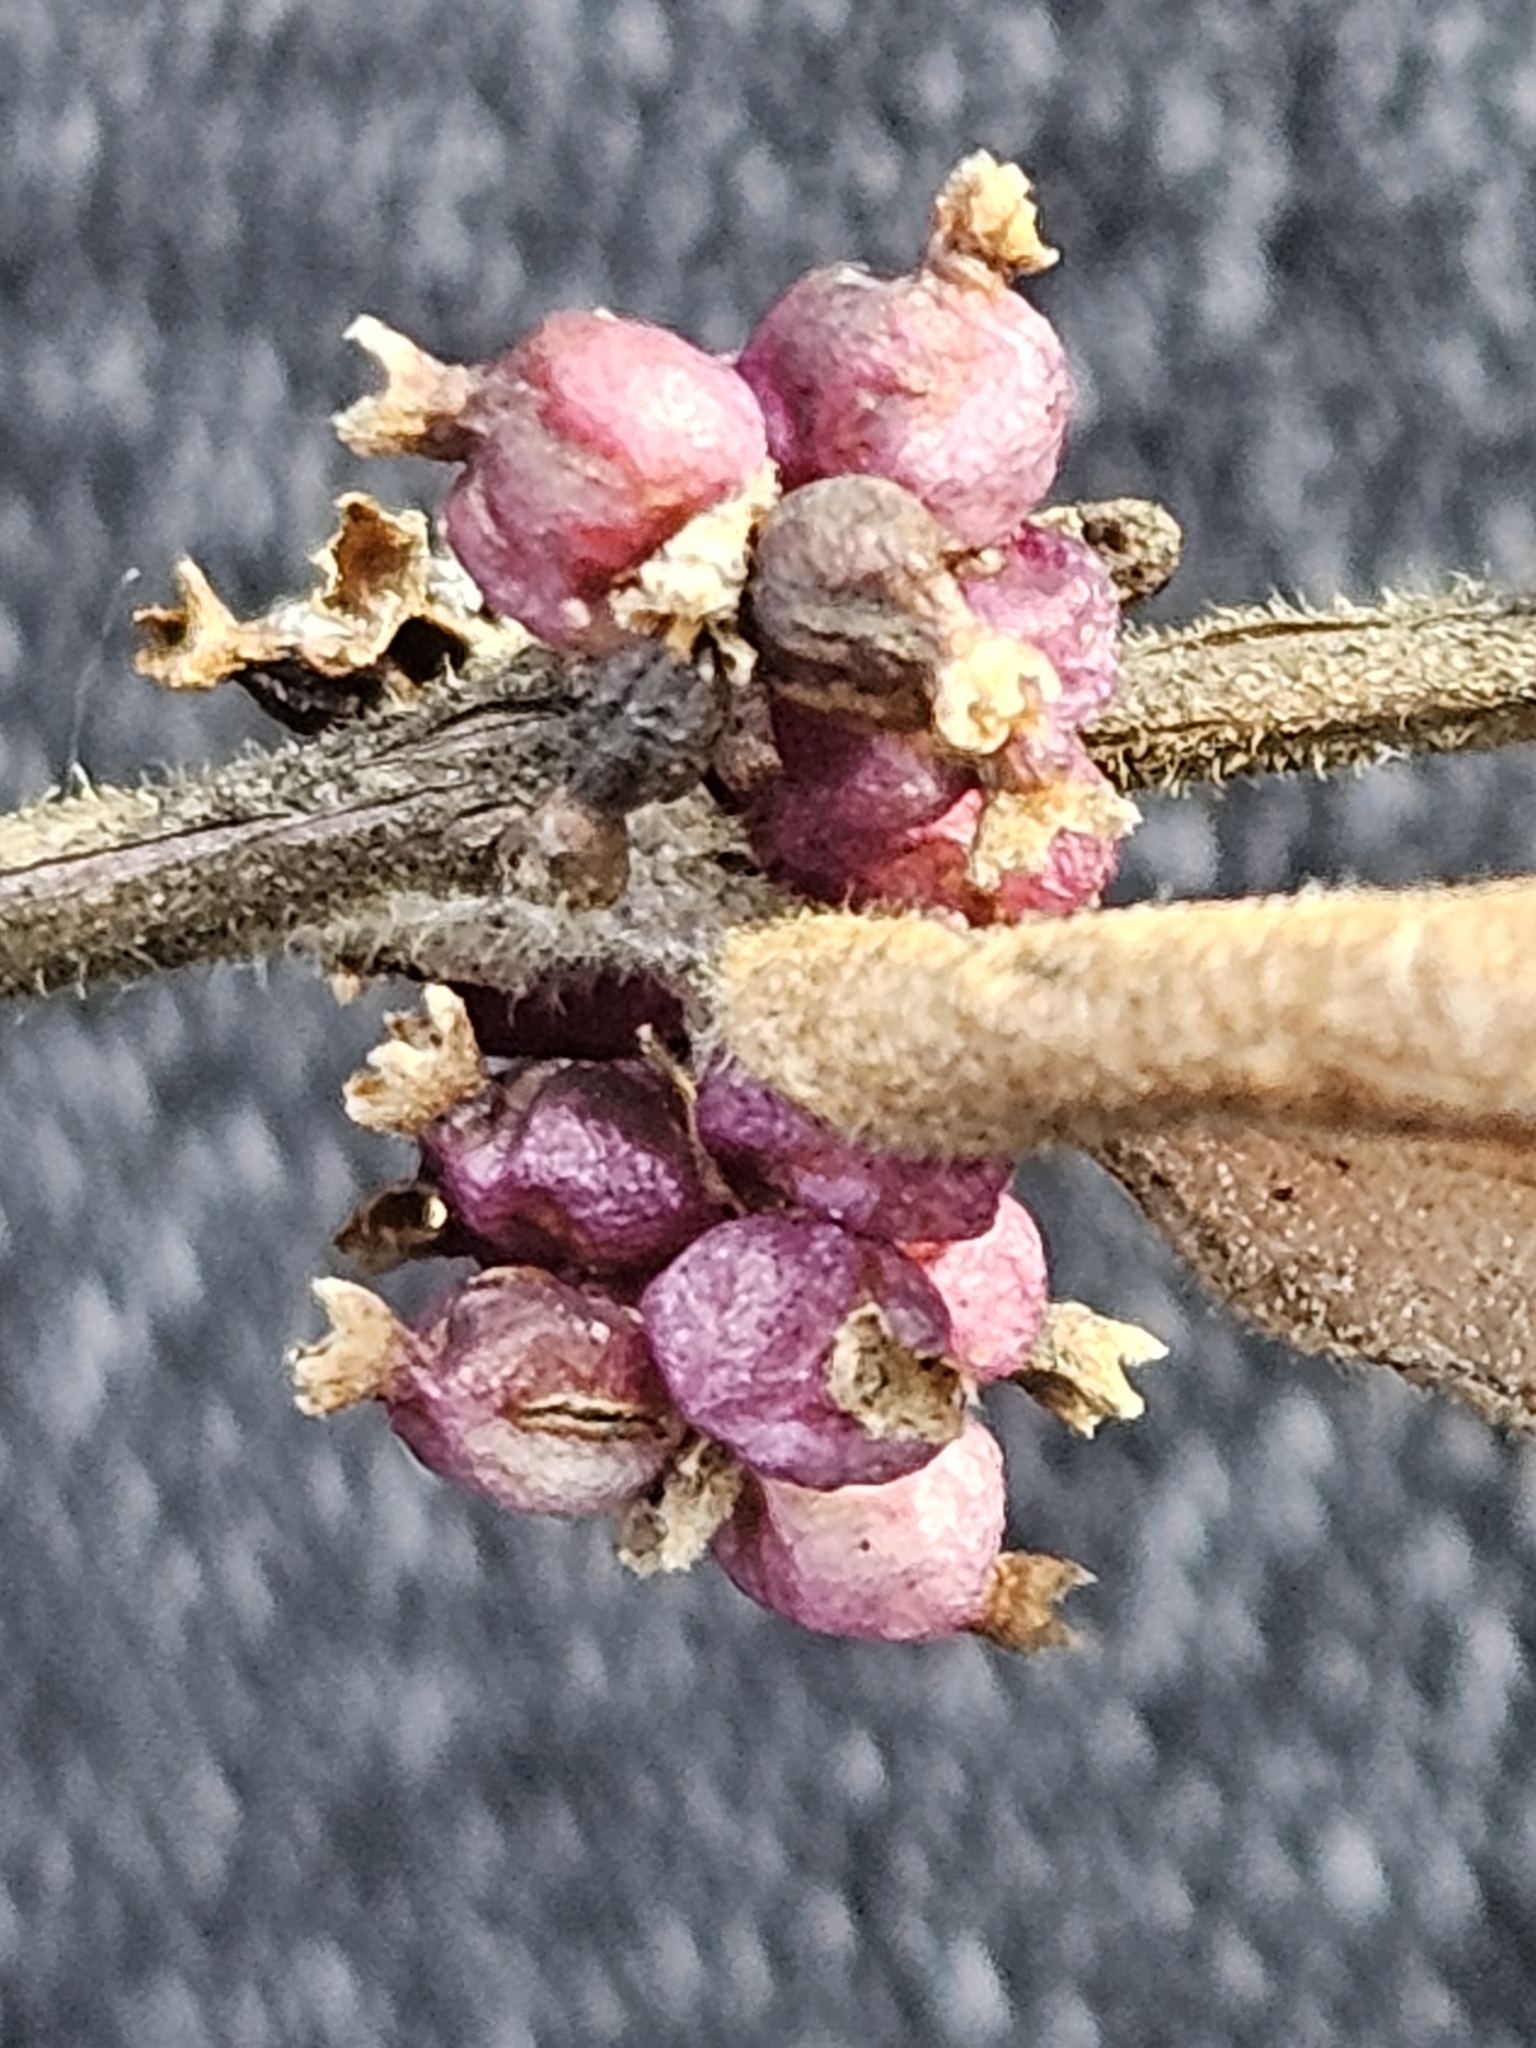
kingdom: Plantae
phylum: Tracheophyta
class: Magnoliopsida
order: Dipsacales
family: Caprifoliaceae
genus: Symphoricarpos
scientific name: Symphoricarpos orbiculatus
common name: Coralberry
